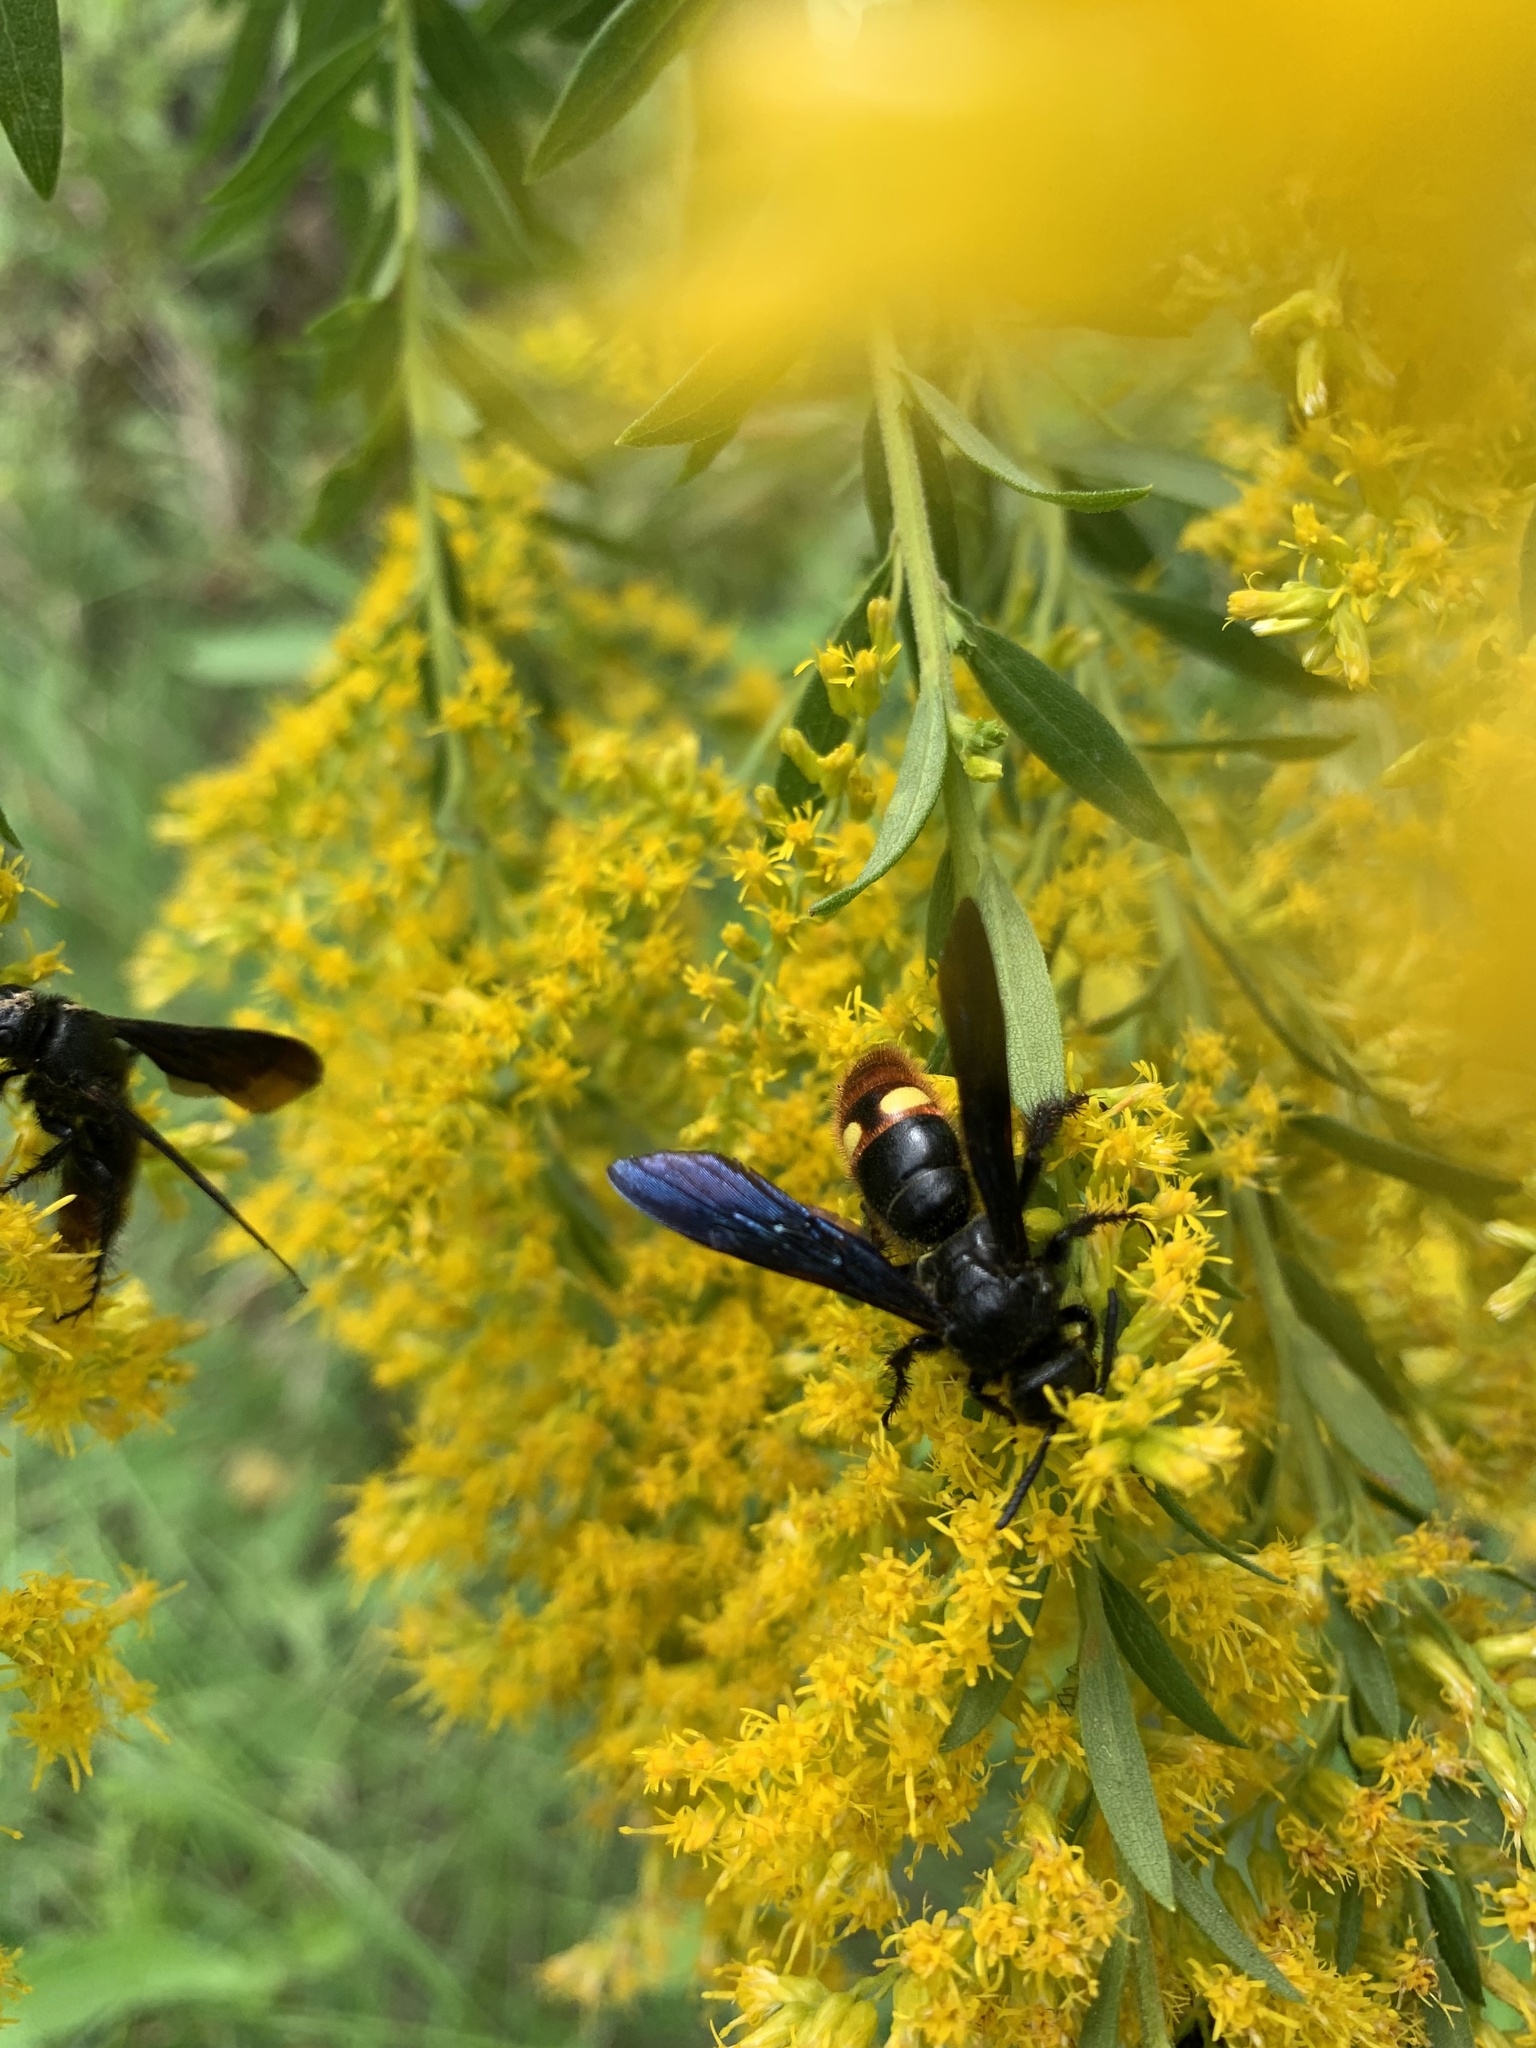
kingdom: Animalia
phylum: Arthropoda
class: Insecta
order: Hymenoptera
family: Scoliidae
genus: Scolia
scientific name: Scolia dubia
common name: Blue-winged scoliid wasp
